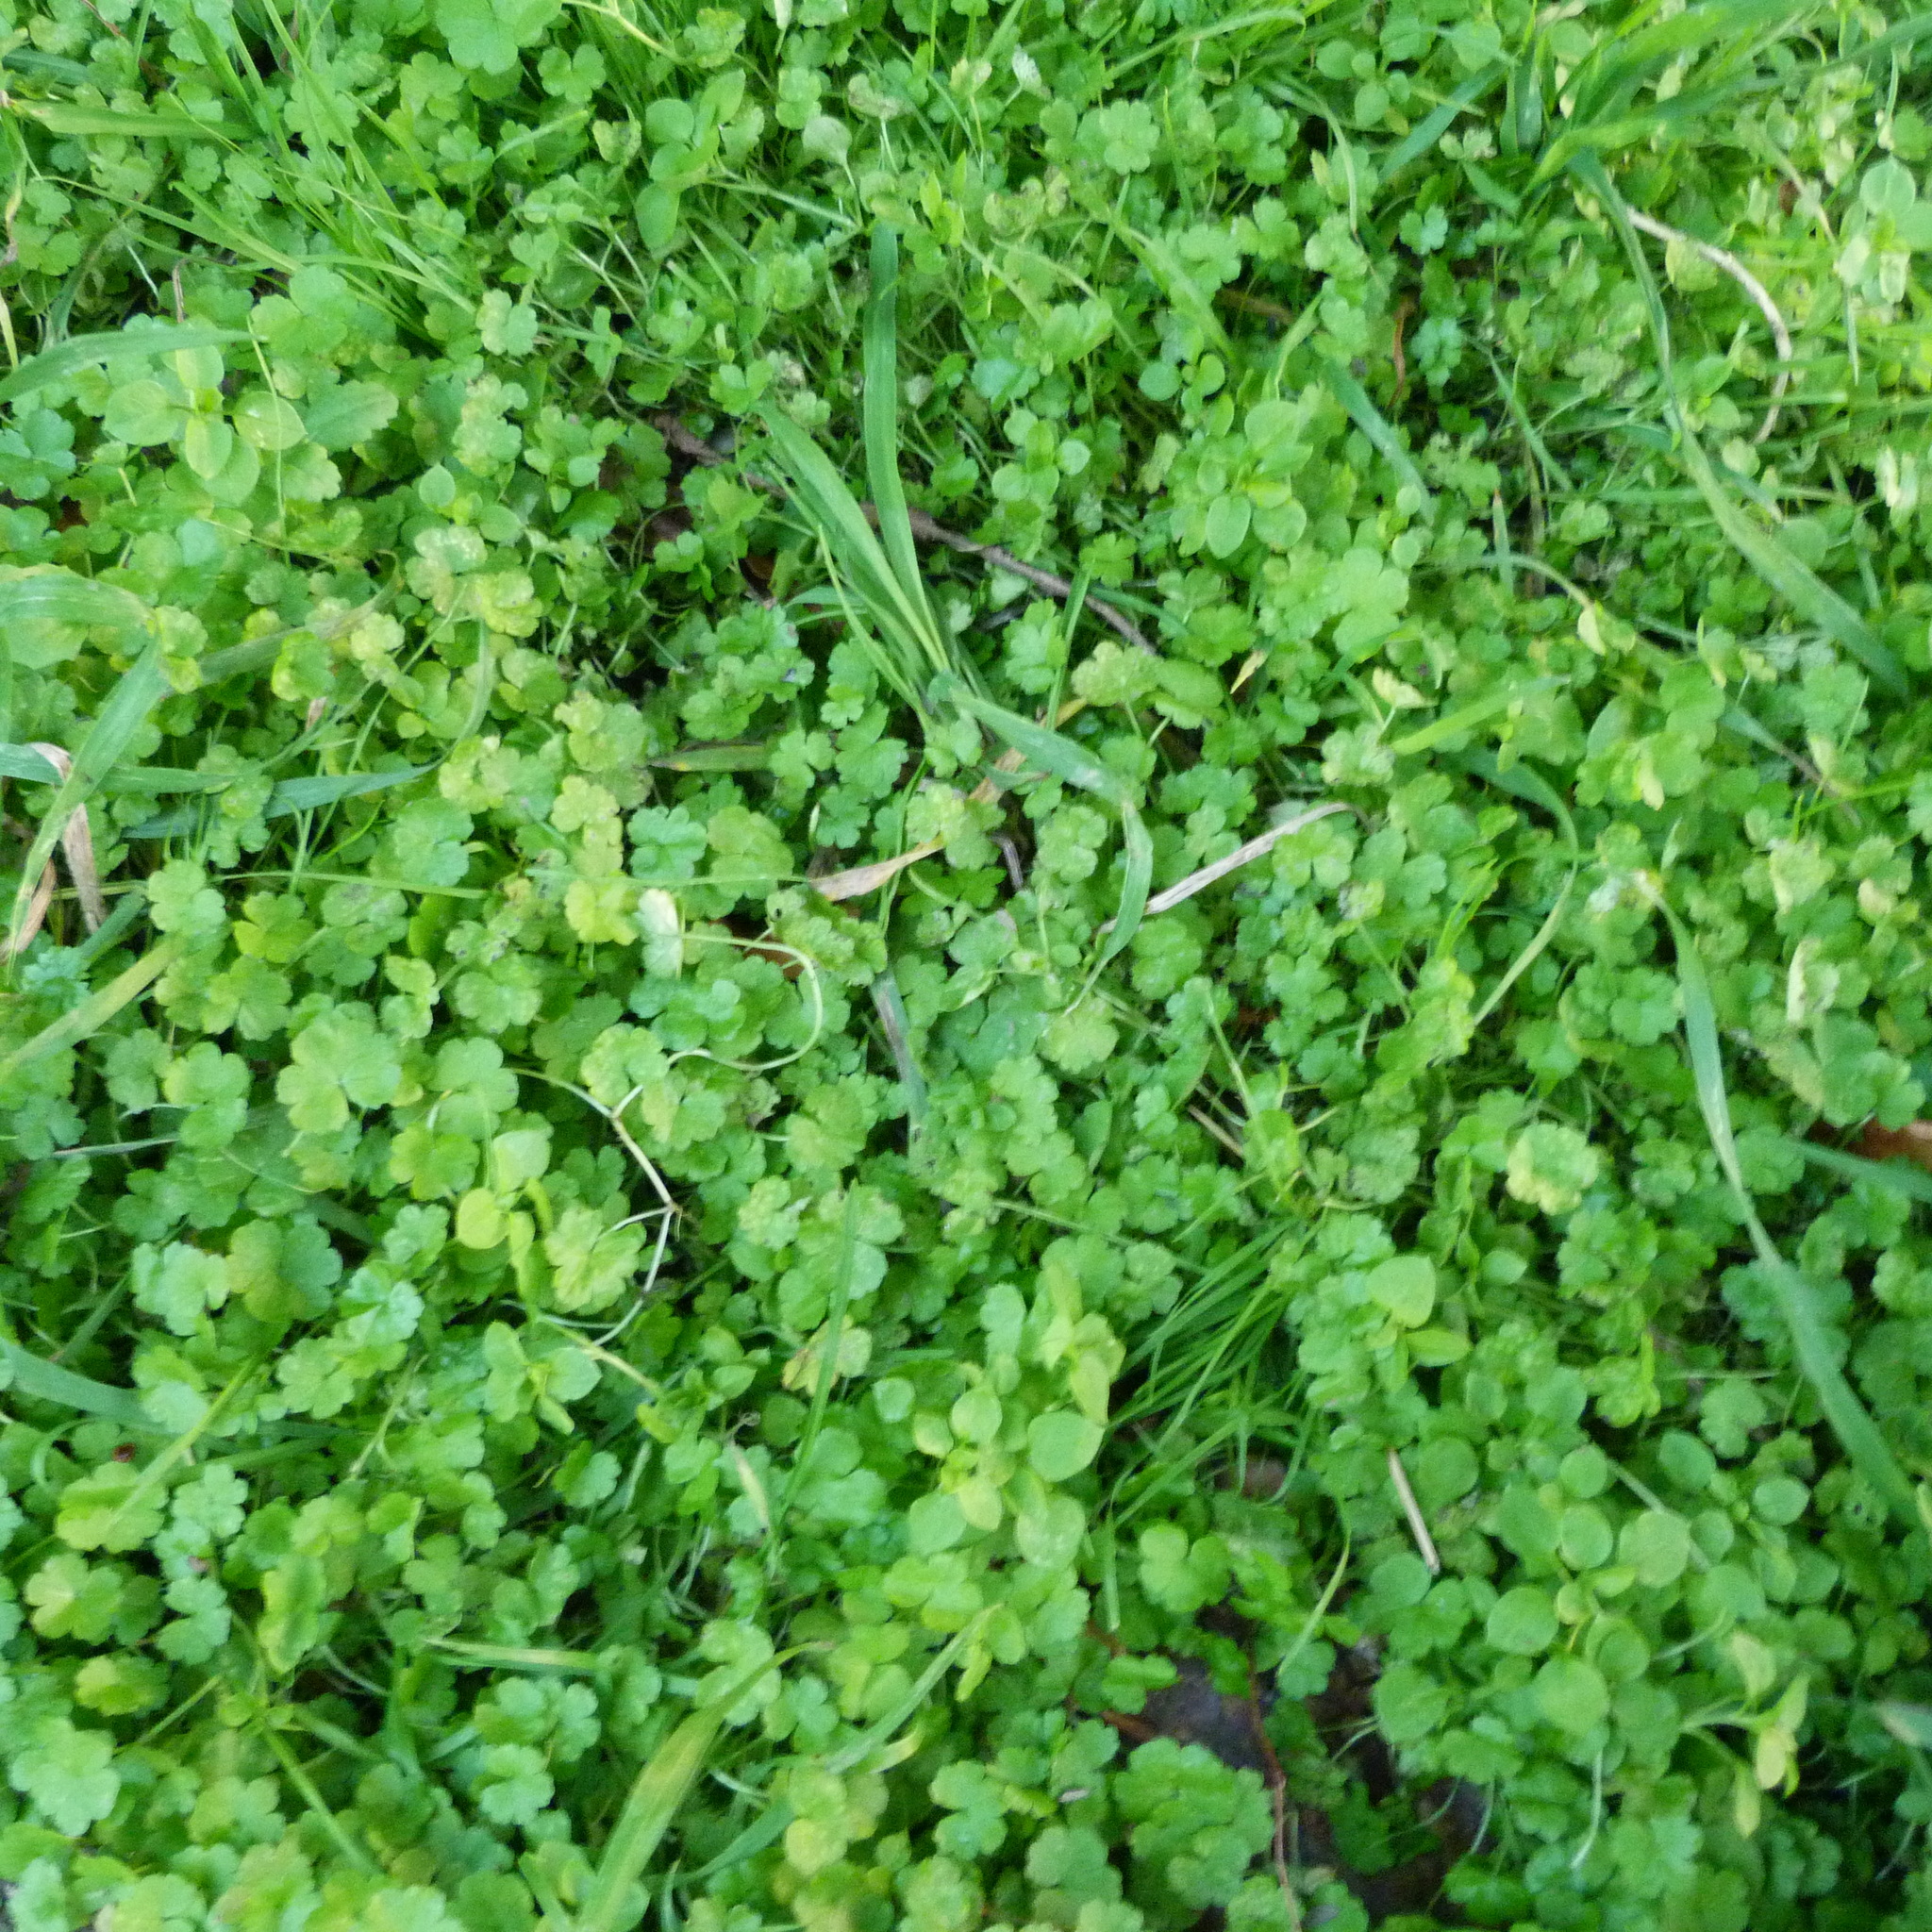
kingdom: Plantae
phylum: Tracheophyta
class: Magnoliopsida
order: Apiales
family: Araliaceae
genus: Hydrocotyle
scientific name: Hydrocotyle heteromeria
